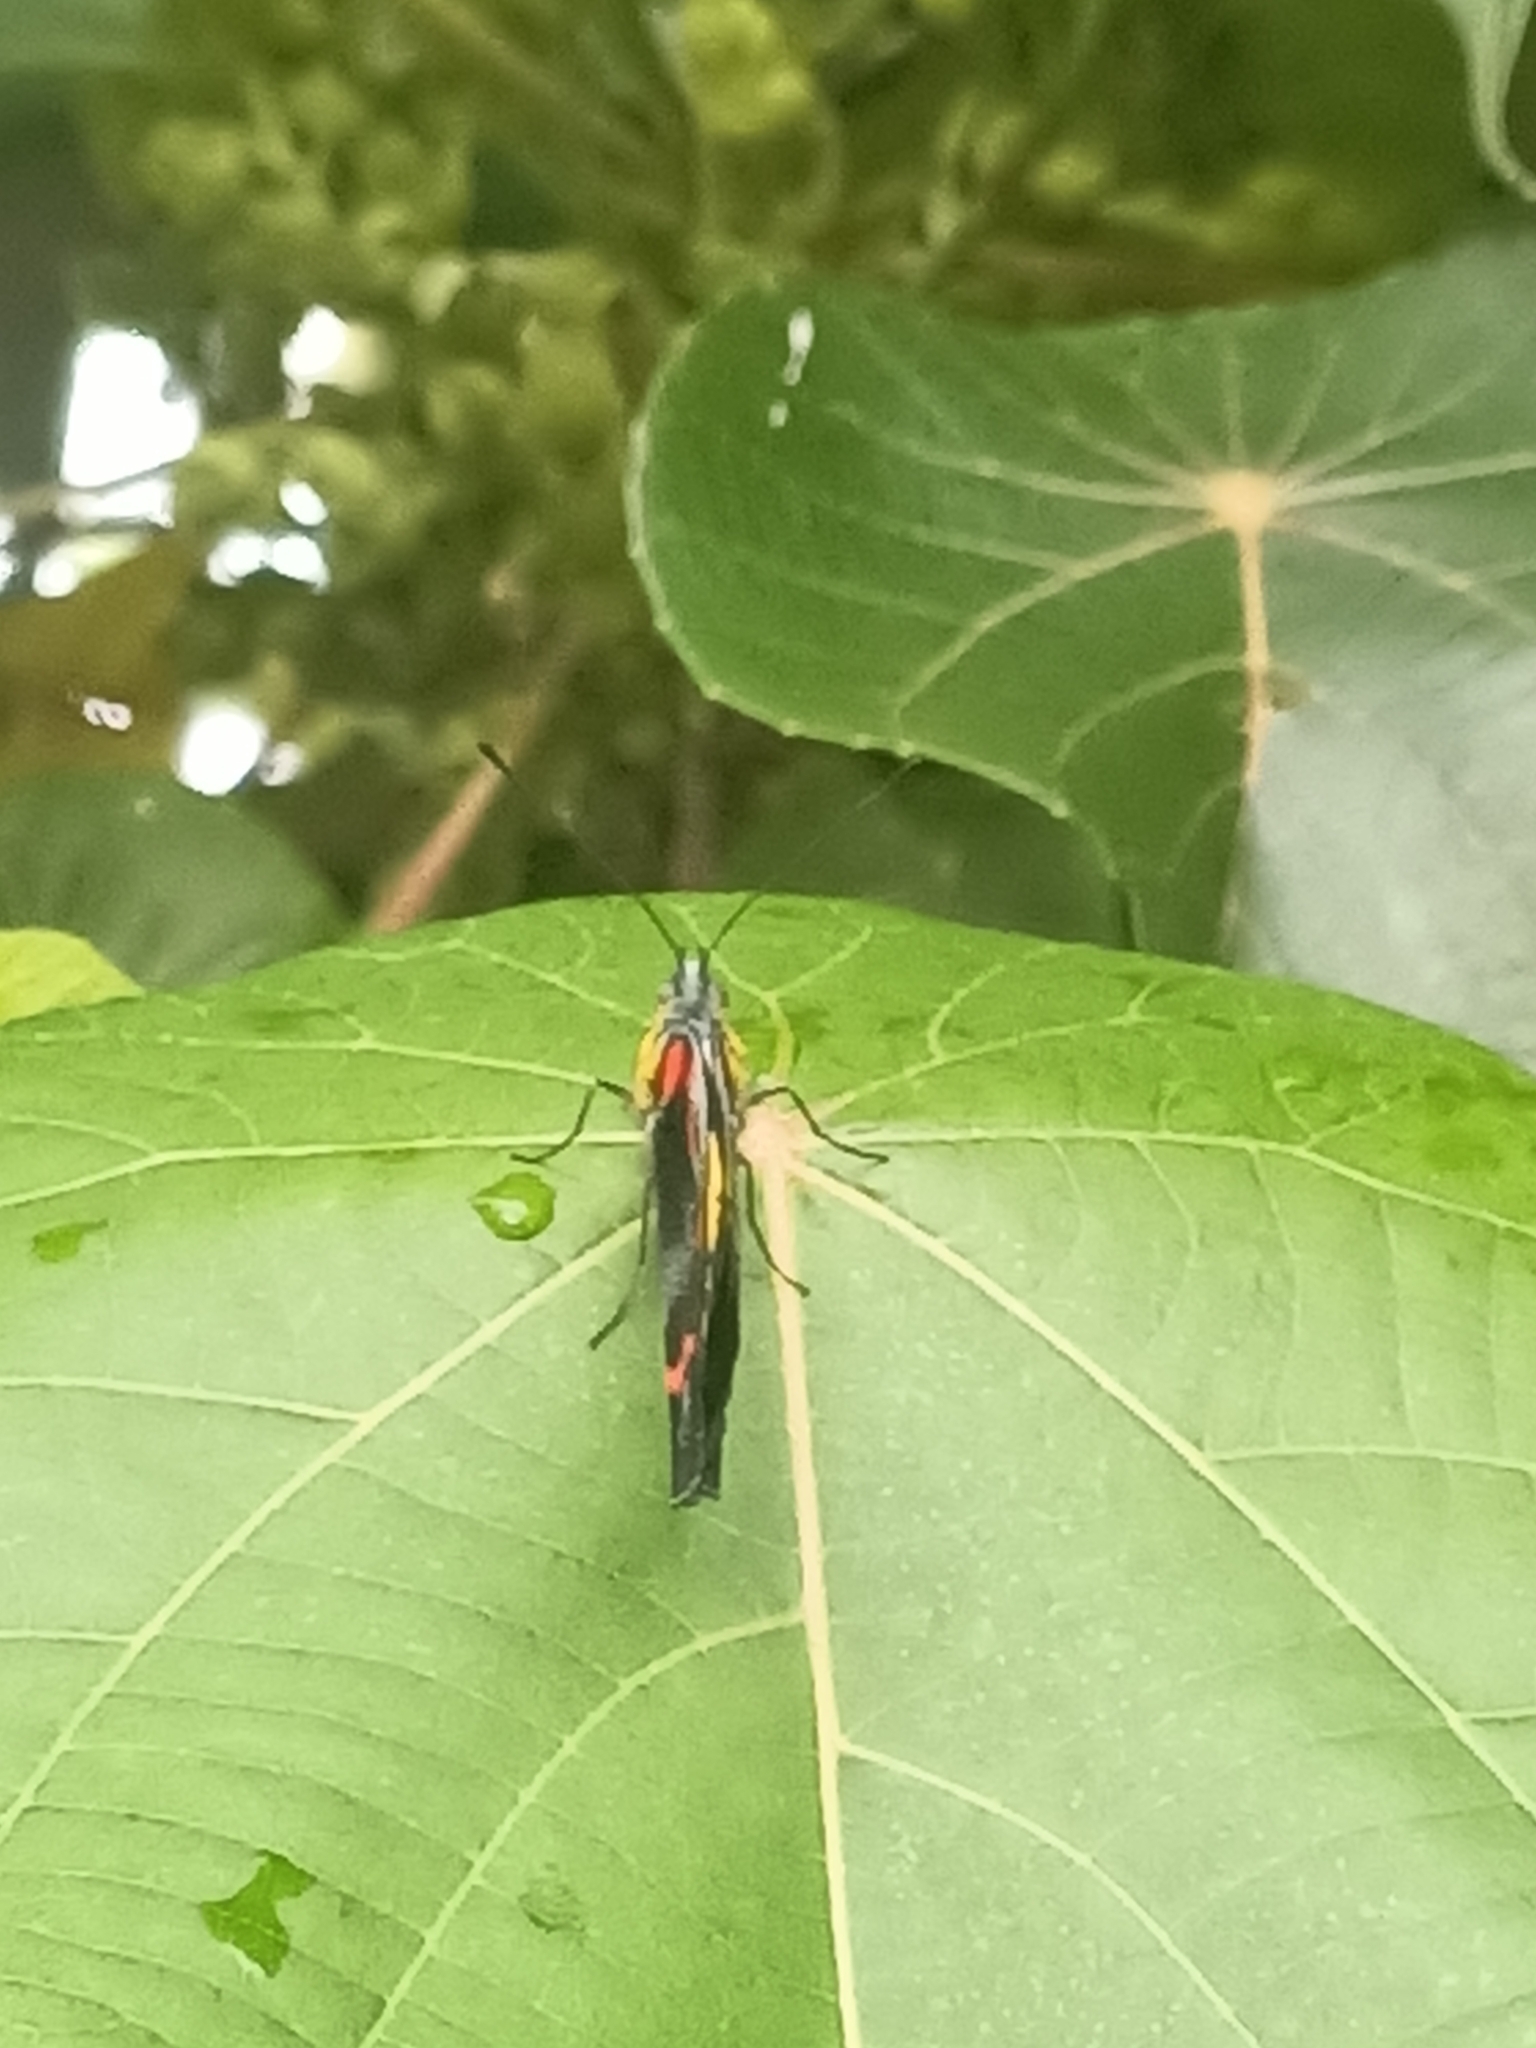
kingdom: Animalia
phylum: Arthropoda
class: Insecta
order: Lepidoptera
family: Pieridae
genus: Delias
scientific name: Delias nigrina
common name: Black jezebel
